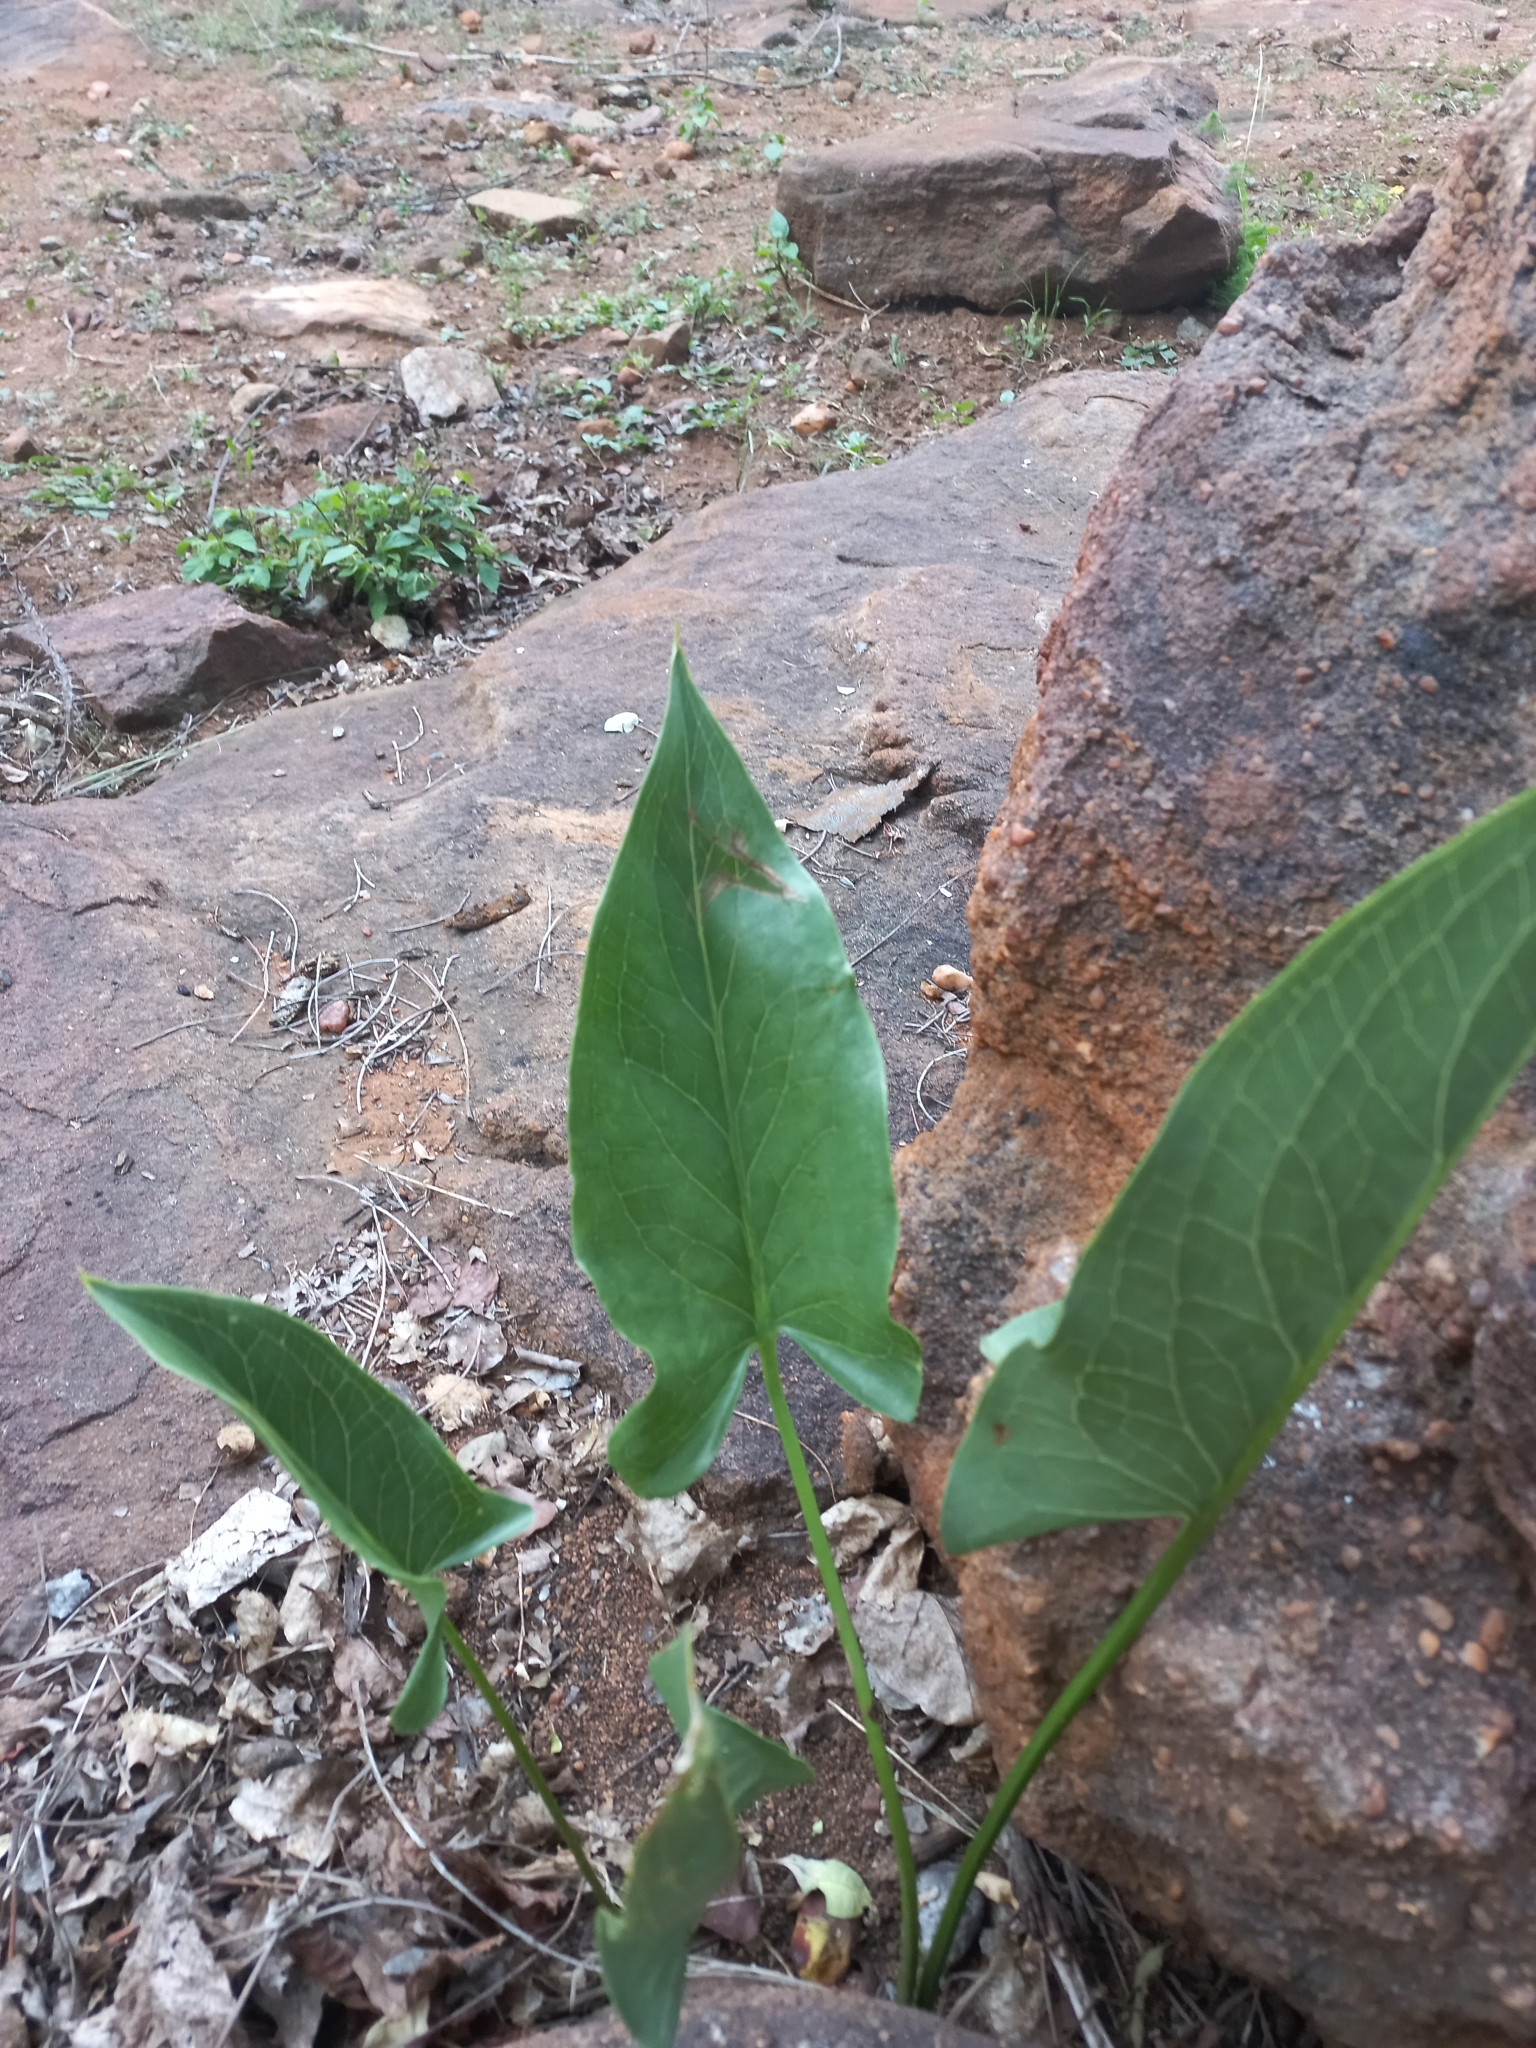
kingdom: Plantae
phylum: Tracheophyta
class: Liliopsida
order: Alismatales
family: Araceae
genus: Stylochaeton
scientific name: Stylochaeton natalensis
